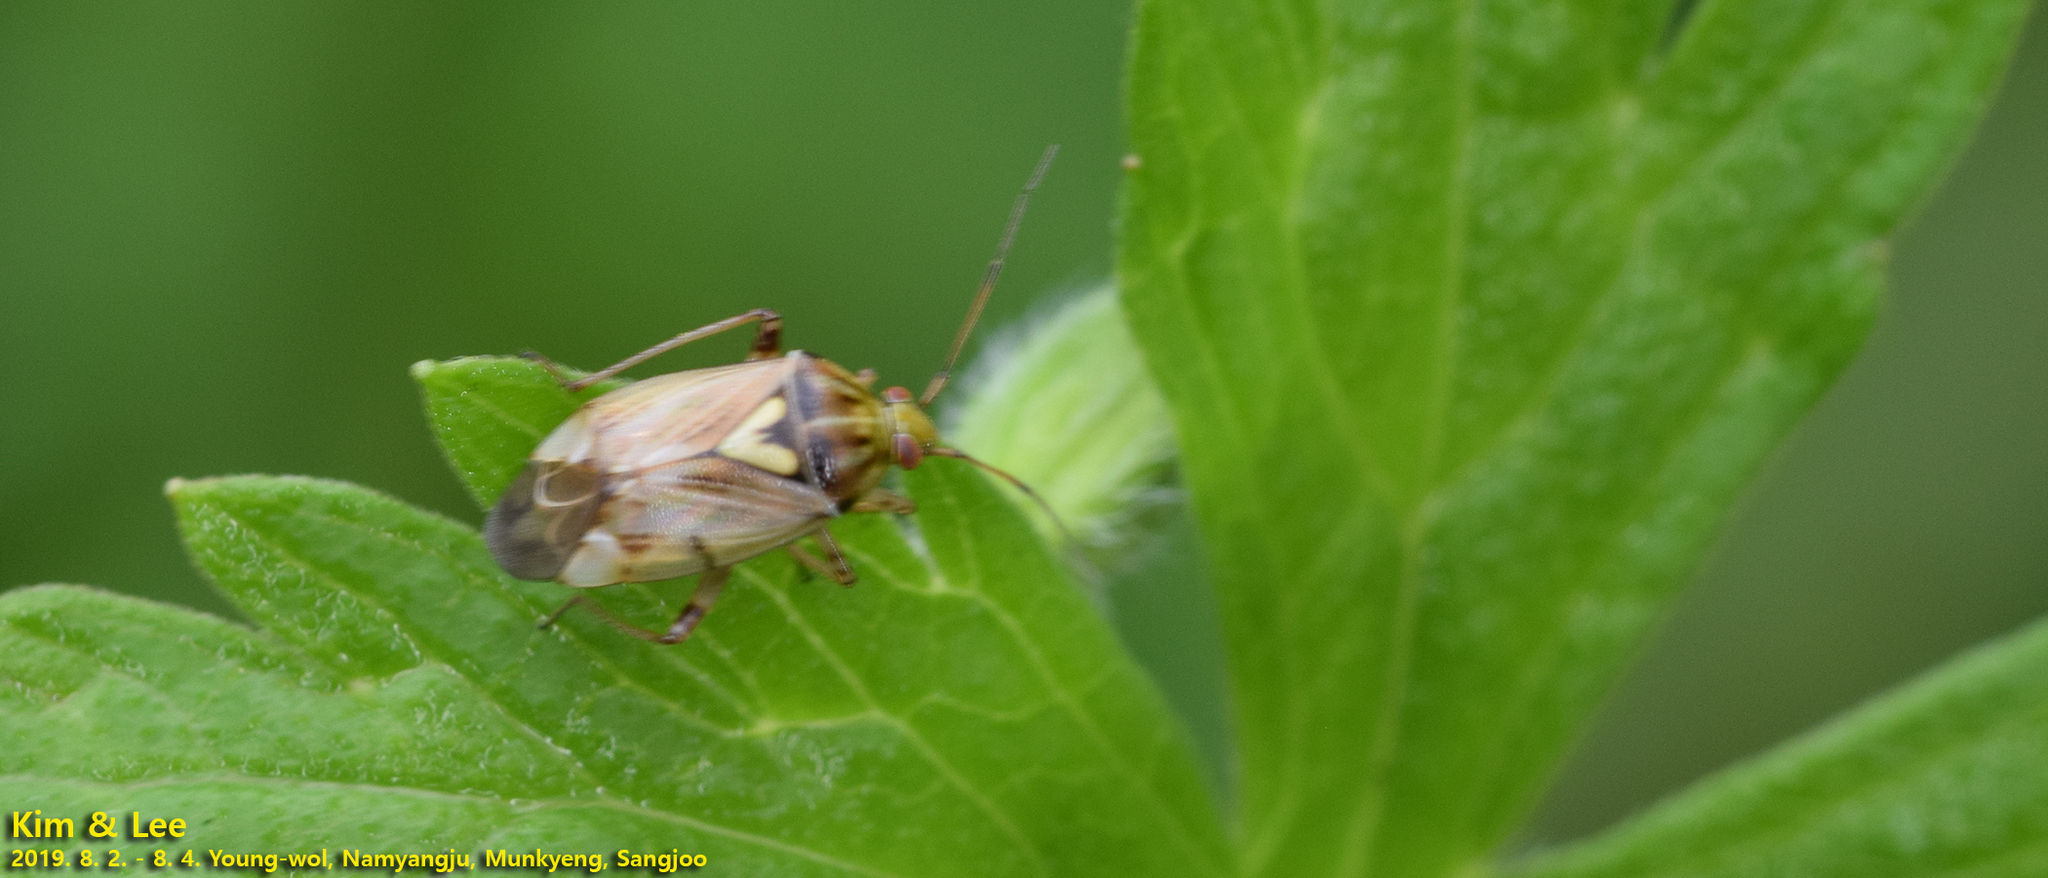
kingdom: Animalia
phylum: Arthropoda
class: Insecta
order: Hemiptera
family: Miridae
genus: Lygus
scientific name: Lygus rugulipennis
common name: European tarnished plant bug
